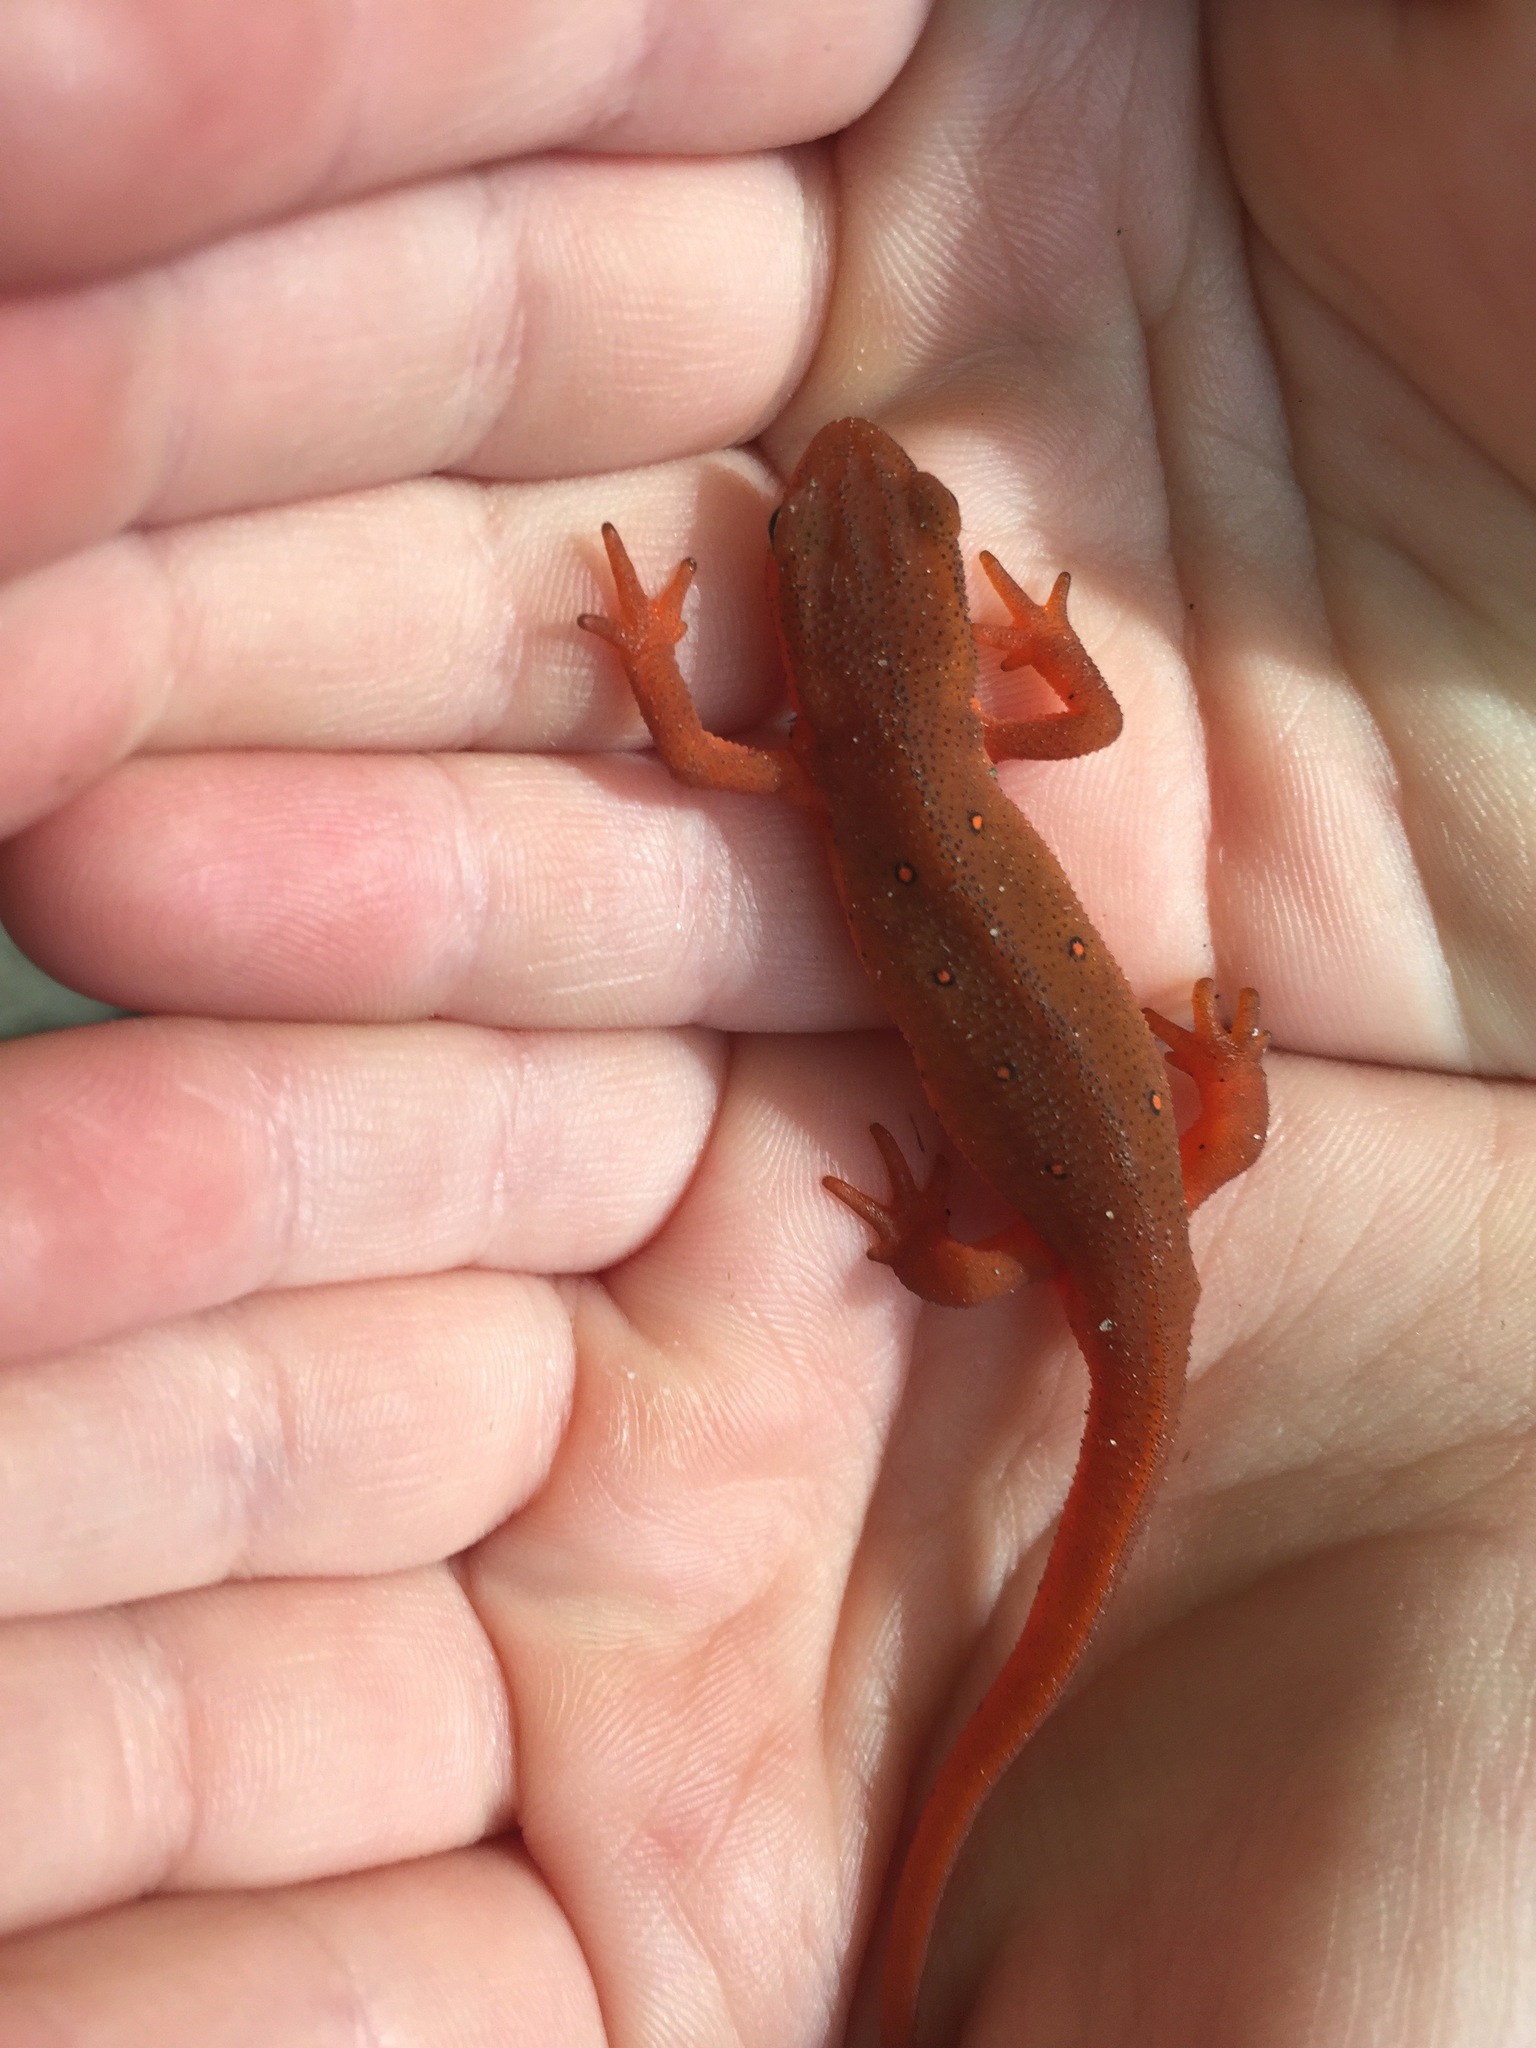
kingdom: Animalia
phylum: Chordata
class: Amphibia
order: Caudata
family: Salamandridae
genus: Notophthalmus
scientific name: Notophthalmus viridescens
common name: Eastern newt
